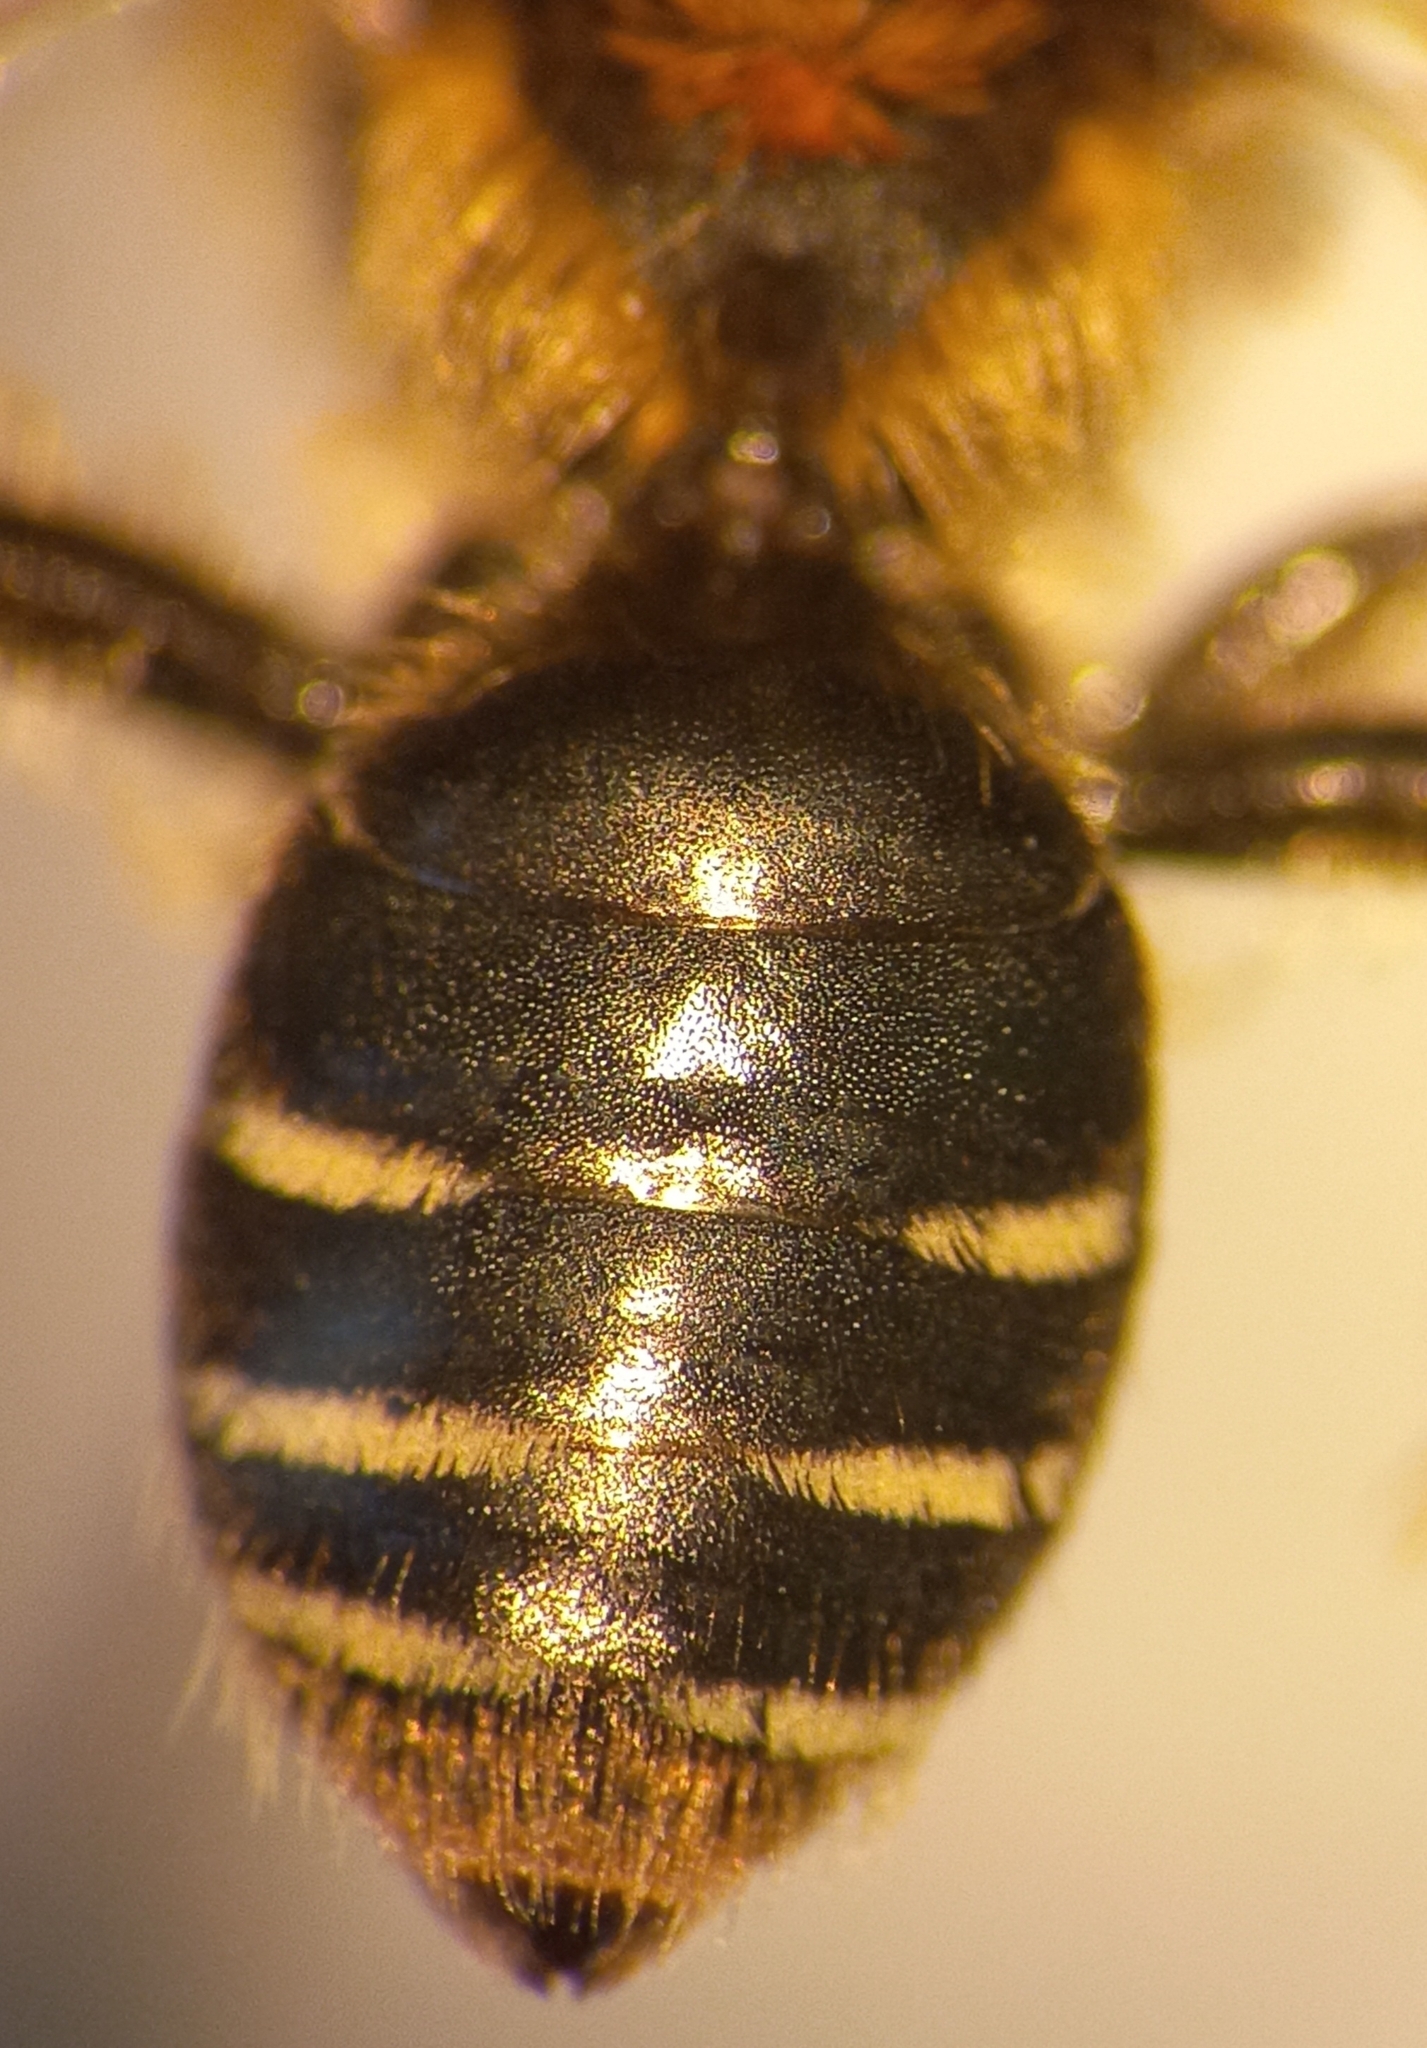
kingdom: Animalia
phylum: Arthropoda
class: Insecta
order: Hymenoptera
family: Andrenidae
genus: Andrena
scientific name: Andrena dorsata
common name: Short-fringed mining bee
